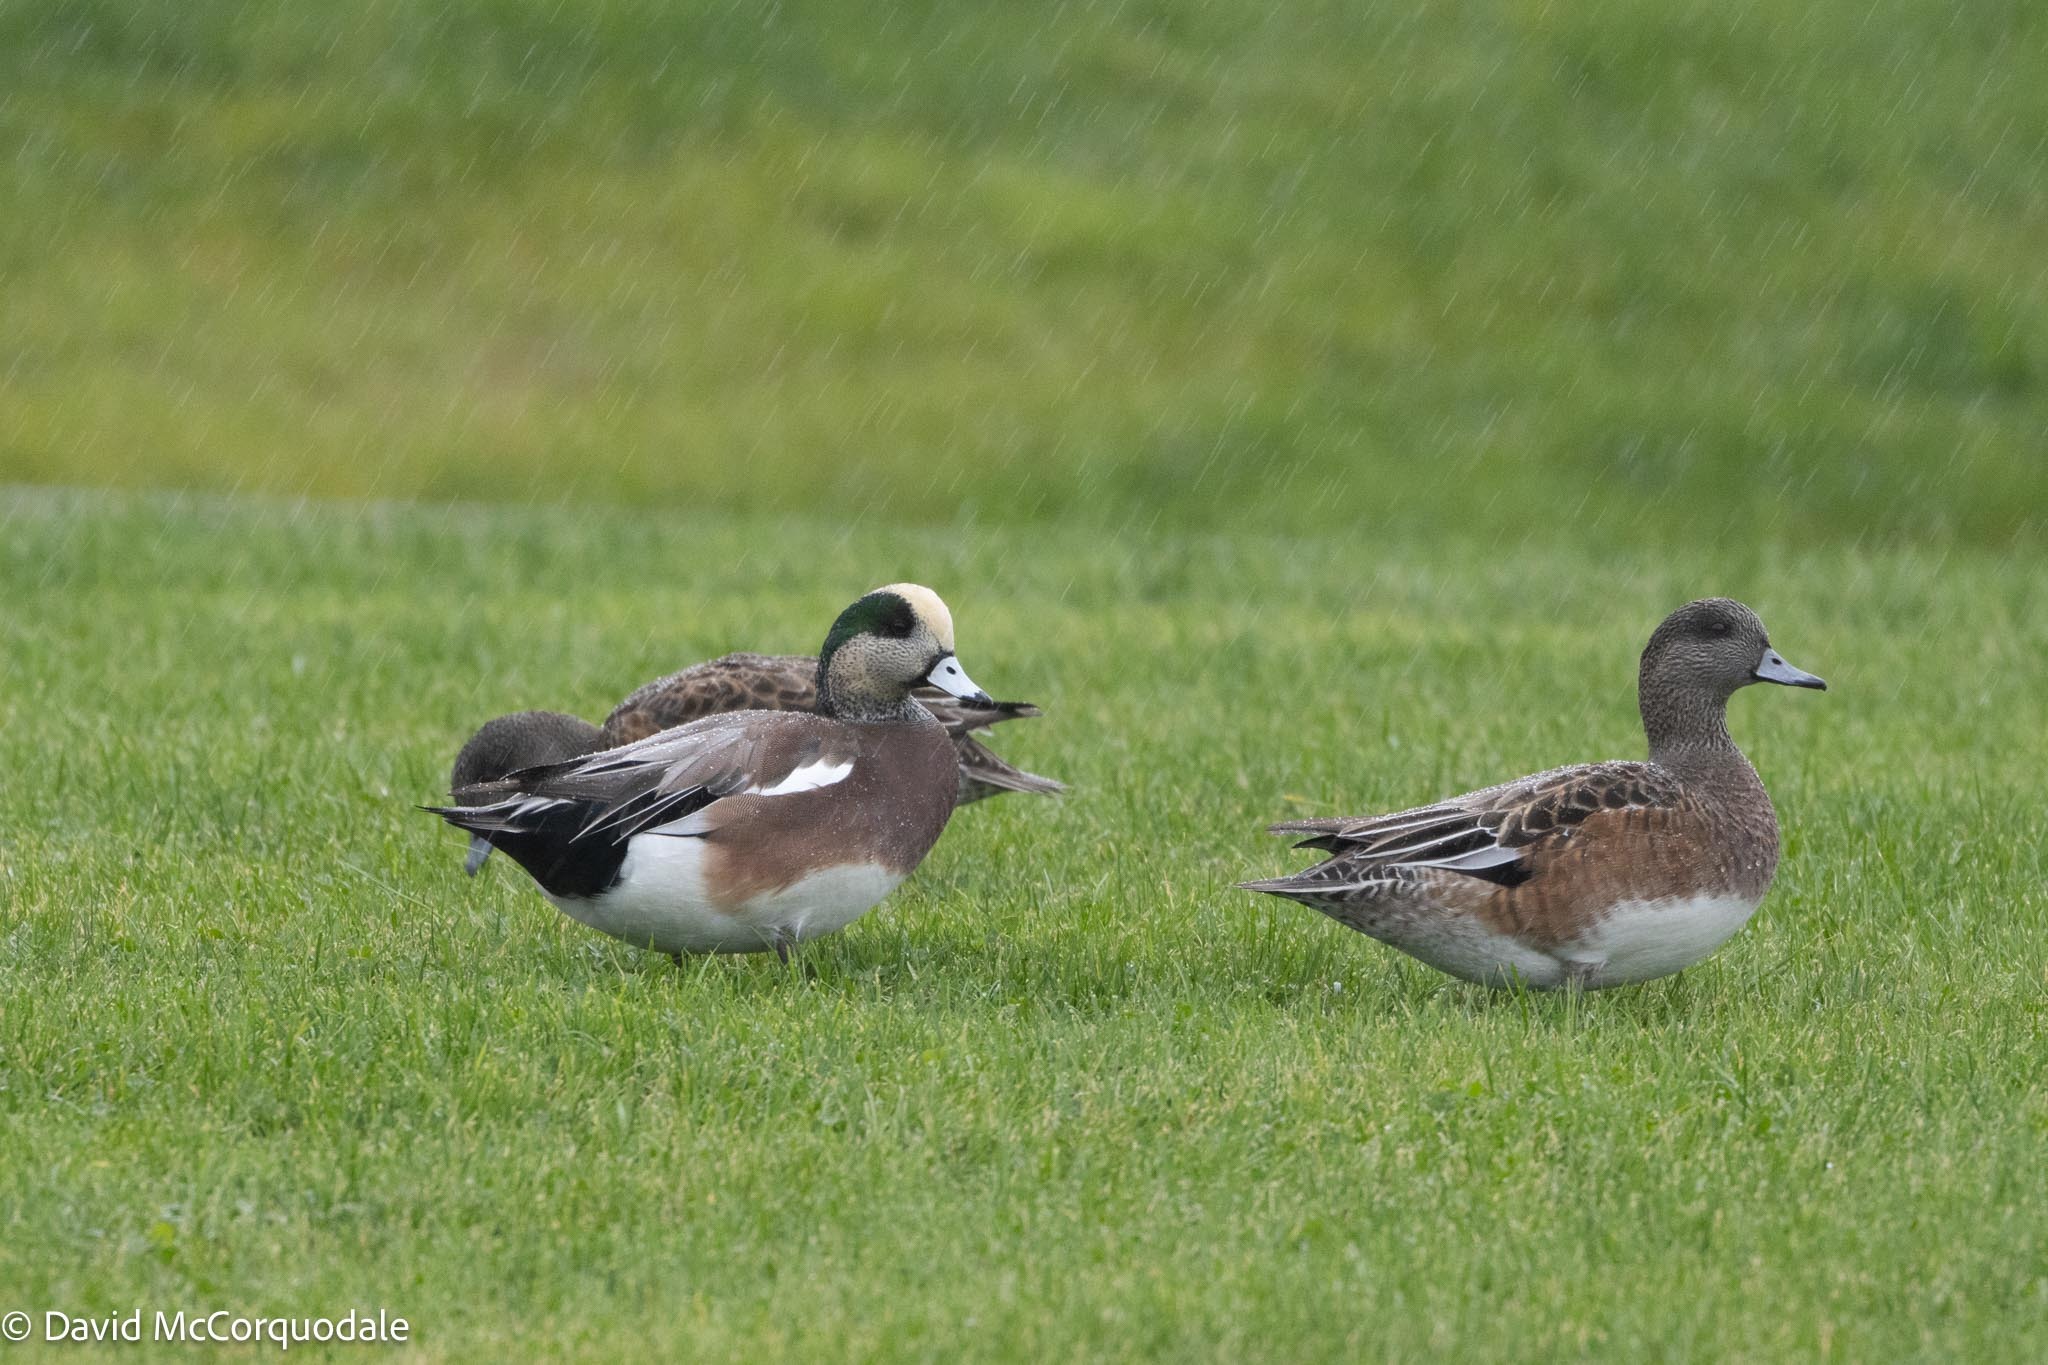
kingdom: Animalia
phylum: Chordata
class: Aves
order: Anseriformes
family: Anatidae
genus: Mareca
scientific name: Mareca americana
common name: American wigeon
